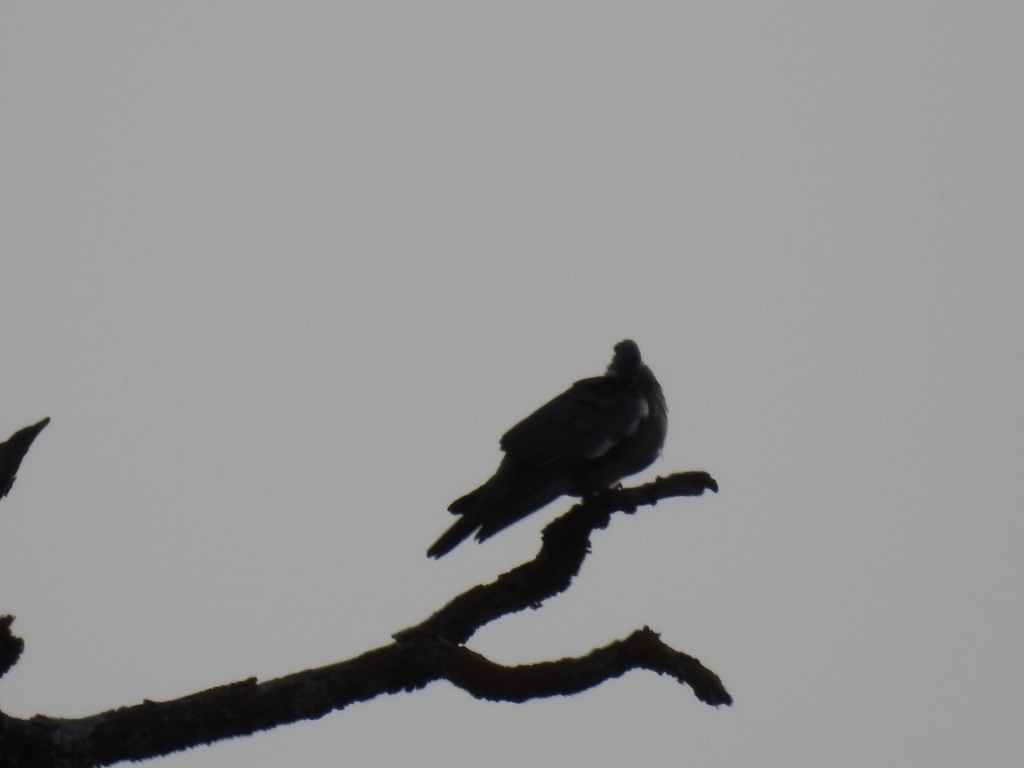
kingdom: Animalia
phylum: Chordata
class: Aves
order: Columbiformes
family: Columbidae
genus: Columba
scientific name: Columba palumbus
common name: Common wood pigeon
